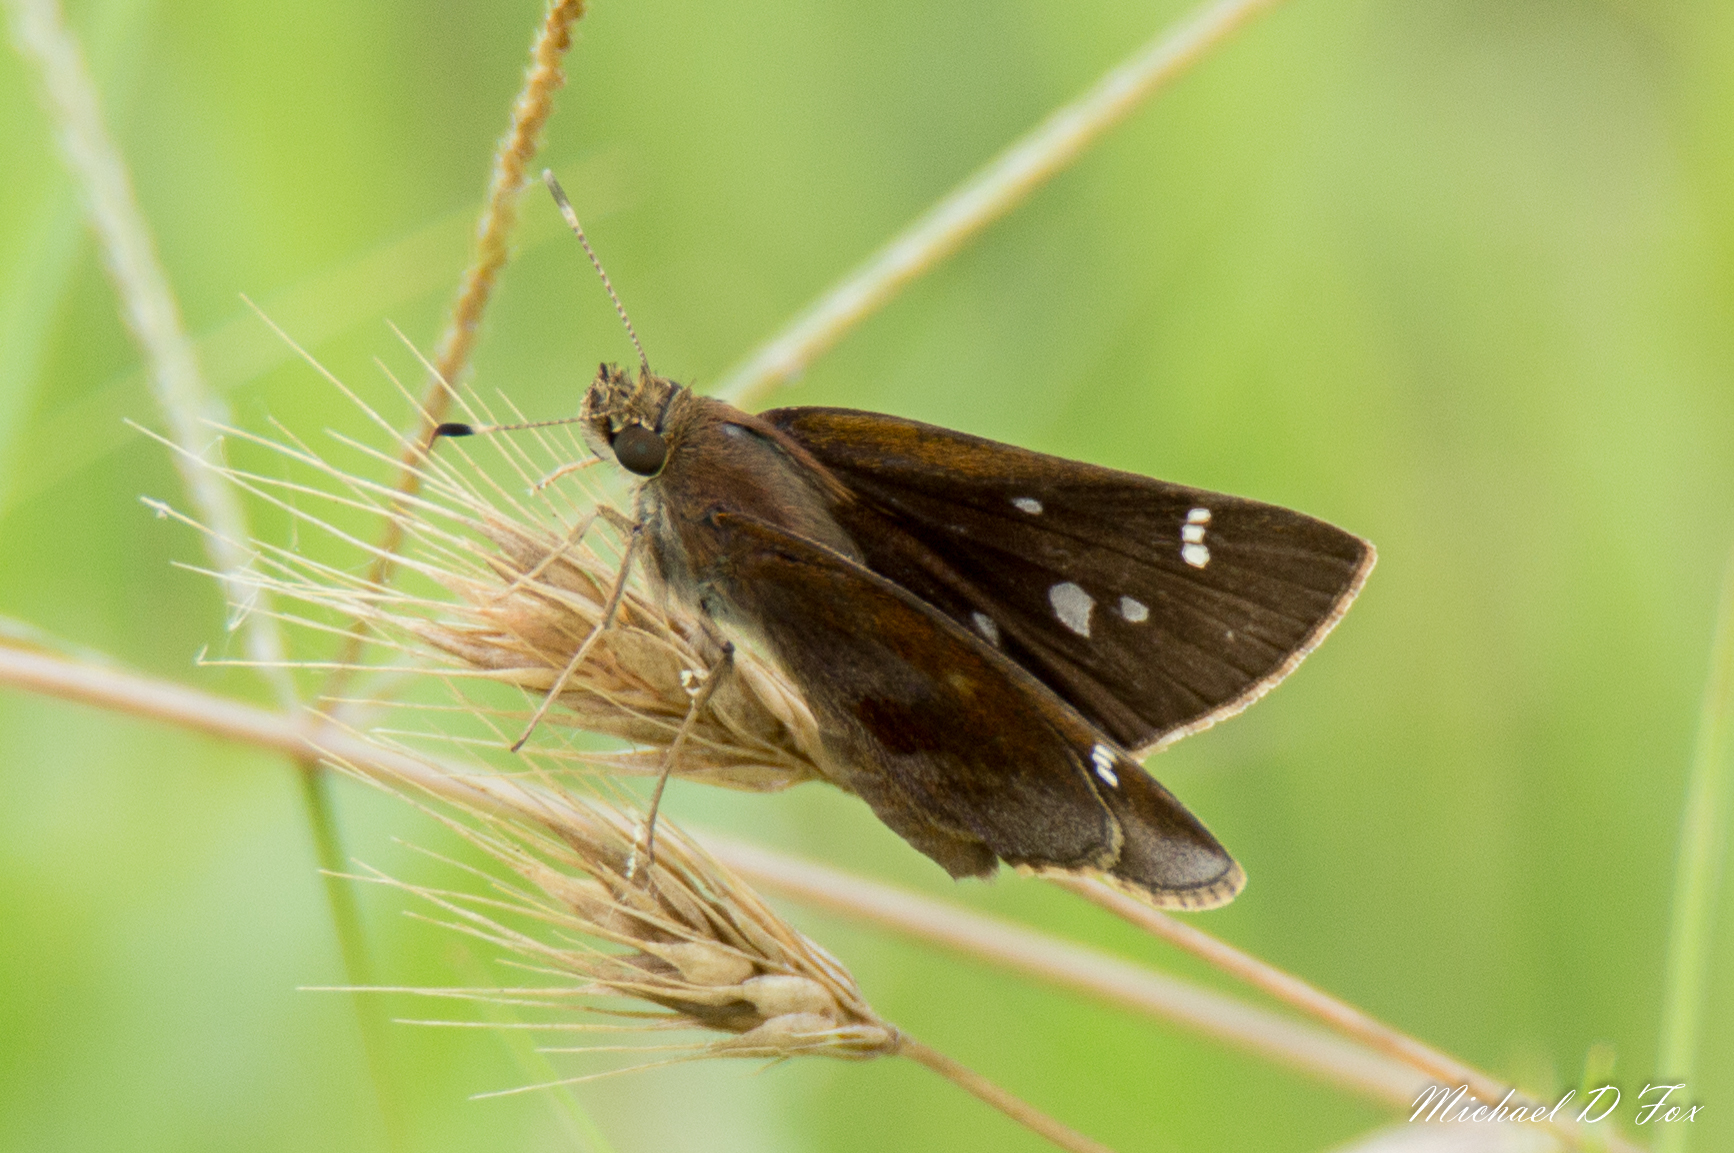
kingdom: Animalia
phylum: Arthropoda
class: Insecta
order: Lepidoptera
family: Hesperiidae
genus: Lerema
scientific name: Lerema accius
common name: Clouded skipper
